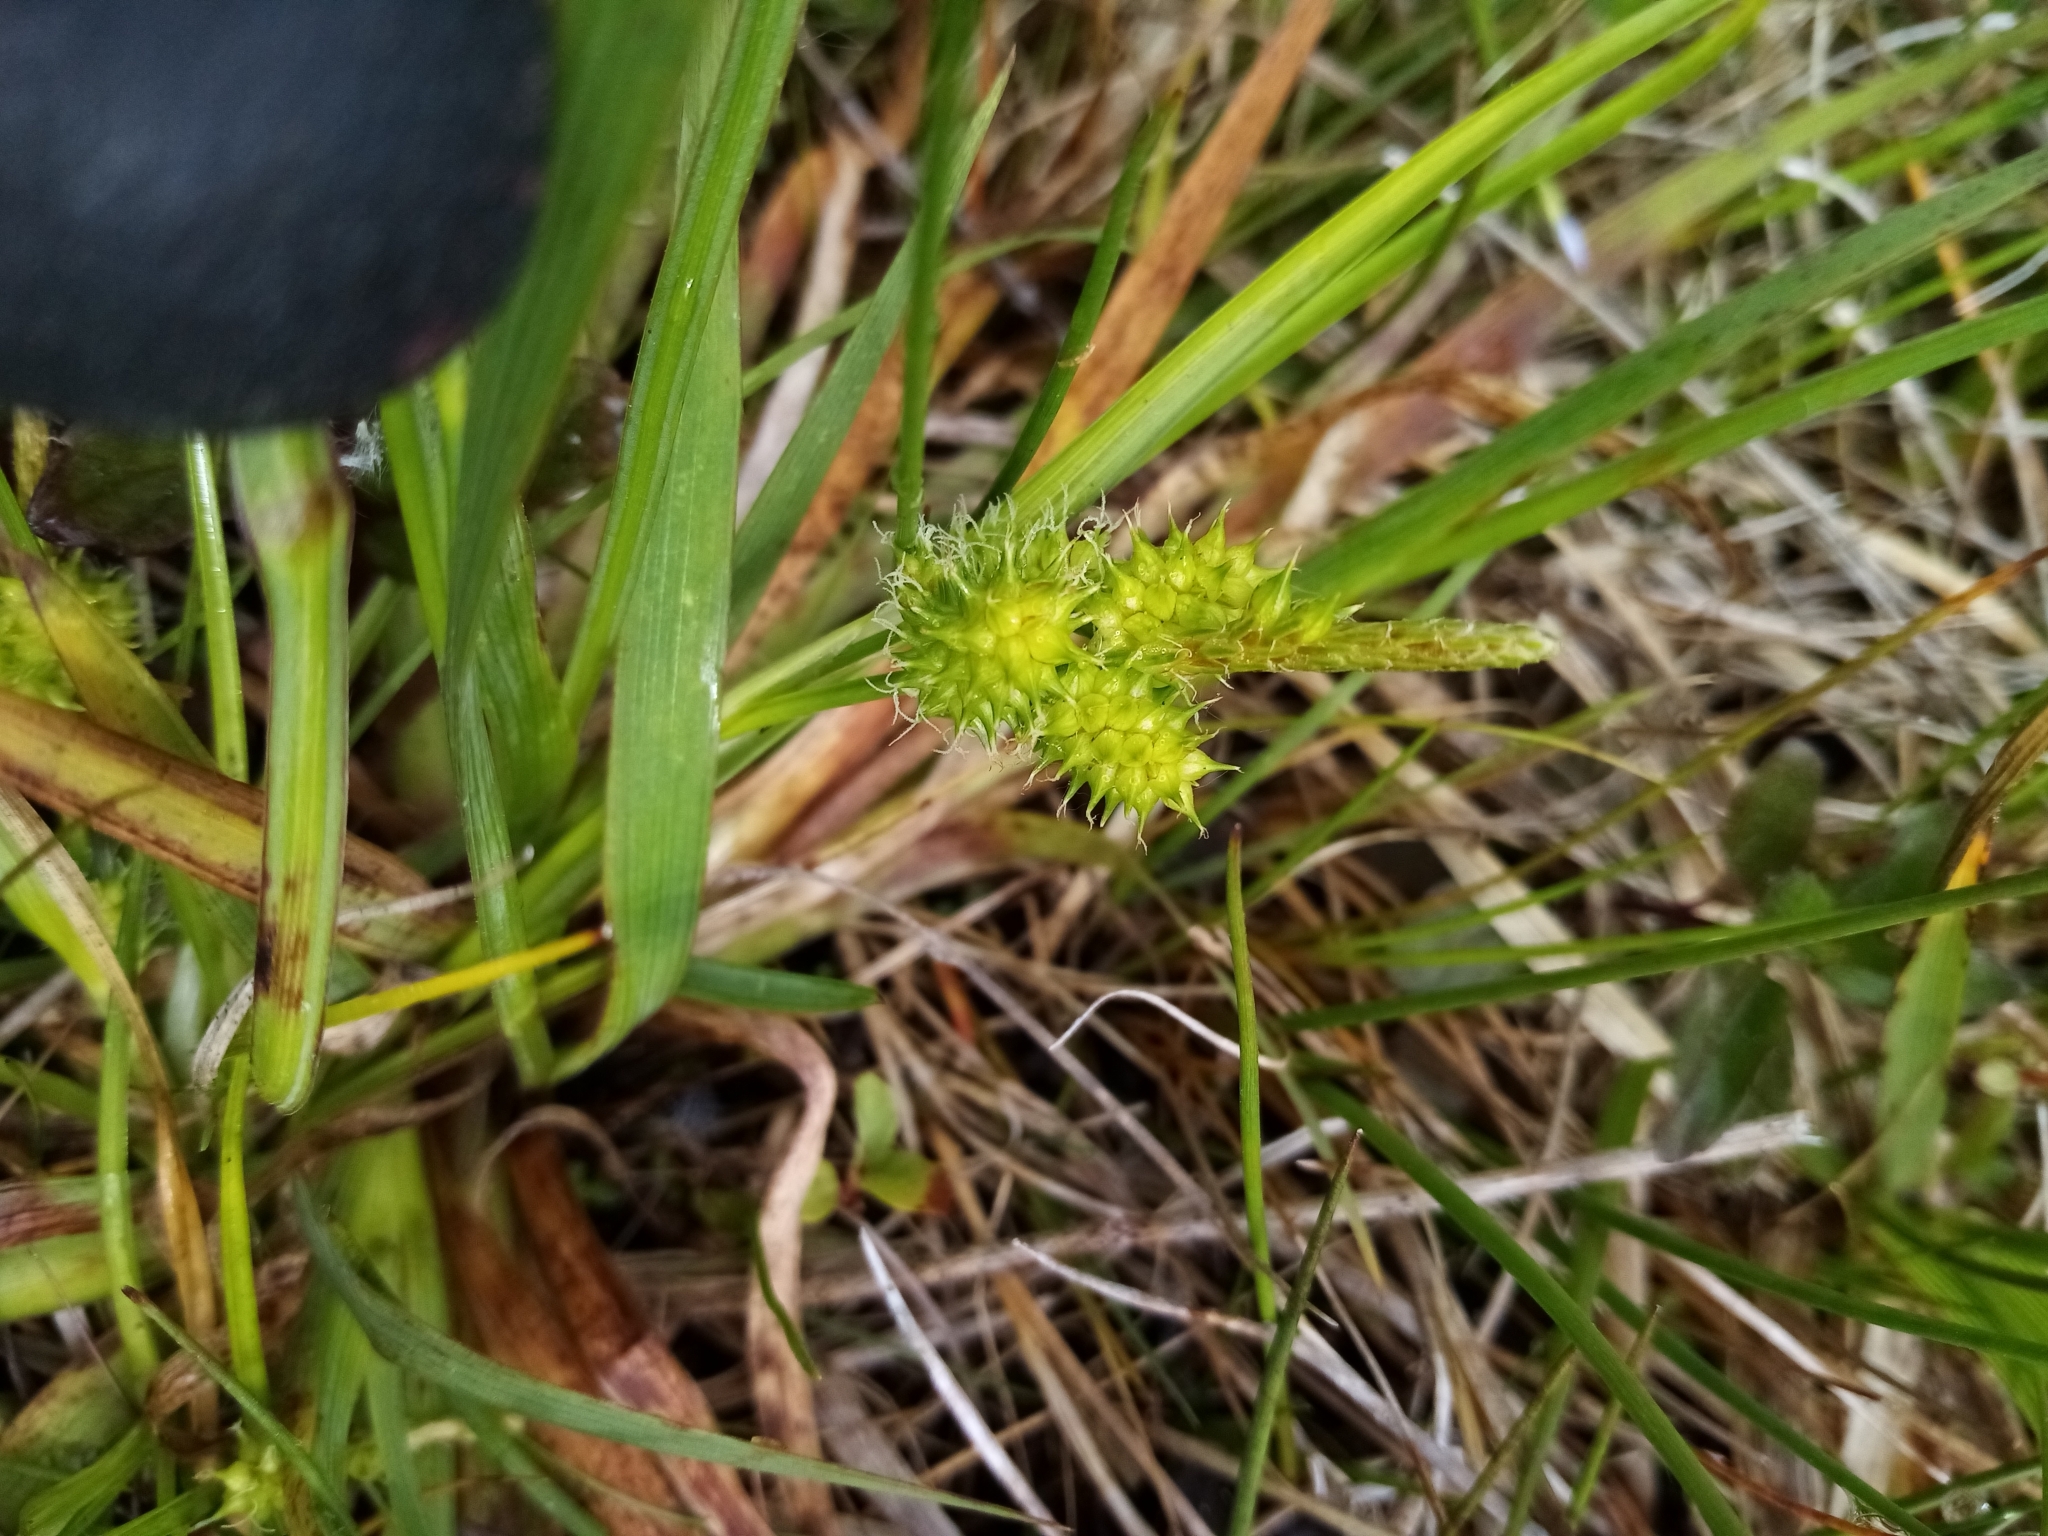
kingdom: Plantae
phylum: Tracheophyta
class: Liliopsida
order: Poales
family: Cyperaceae
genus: Carex
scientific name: Carex flaviformis
